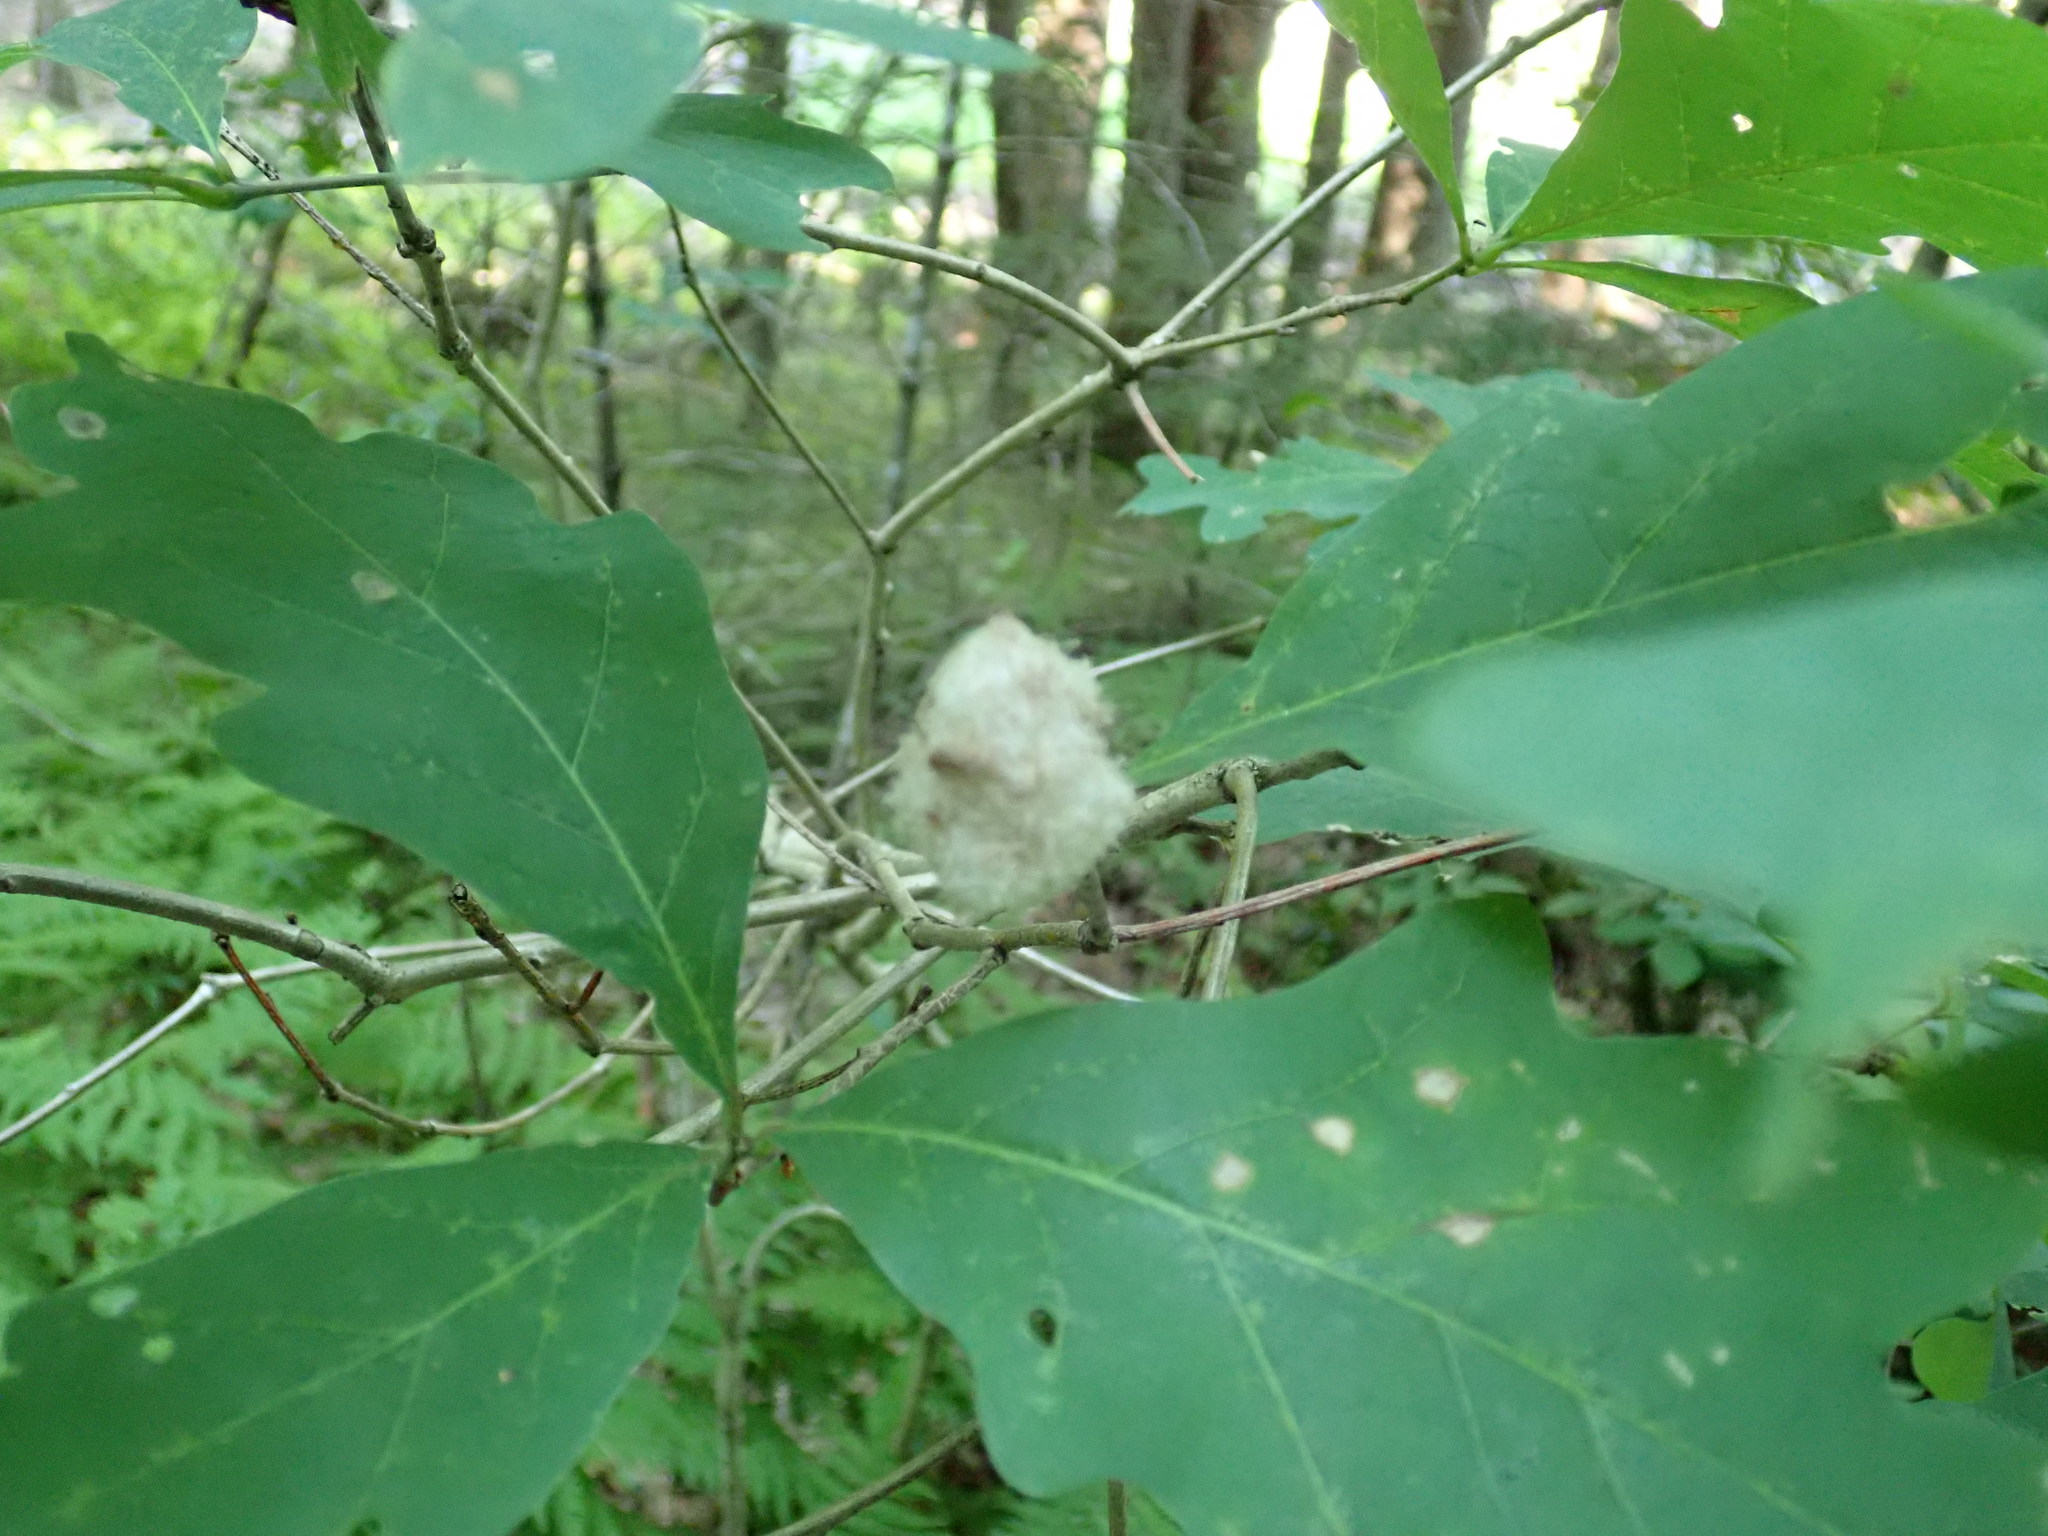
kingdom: Animalia
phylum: Arthropoda
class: Insecta
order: Hymenoptera
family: Cynipidae
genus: Callirhytis
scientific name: Callirhytis
